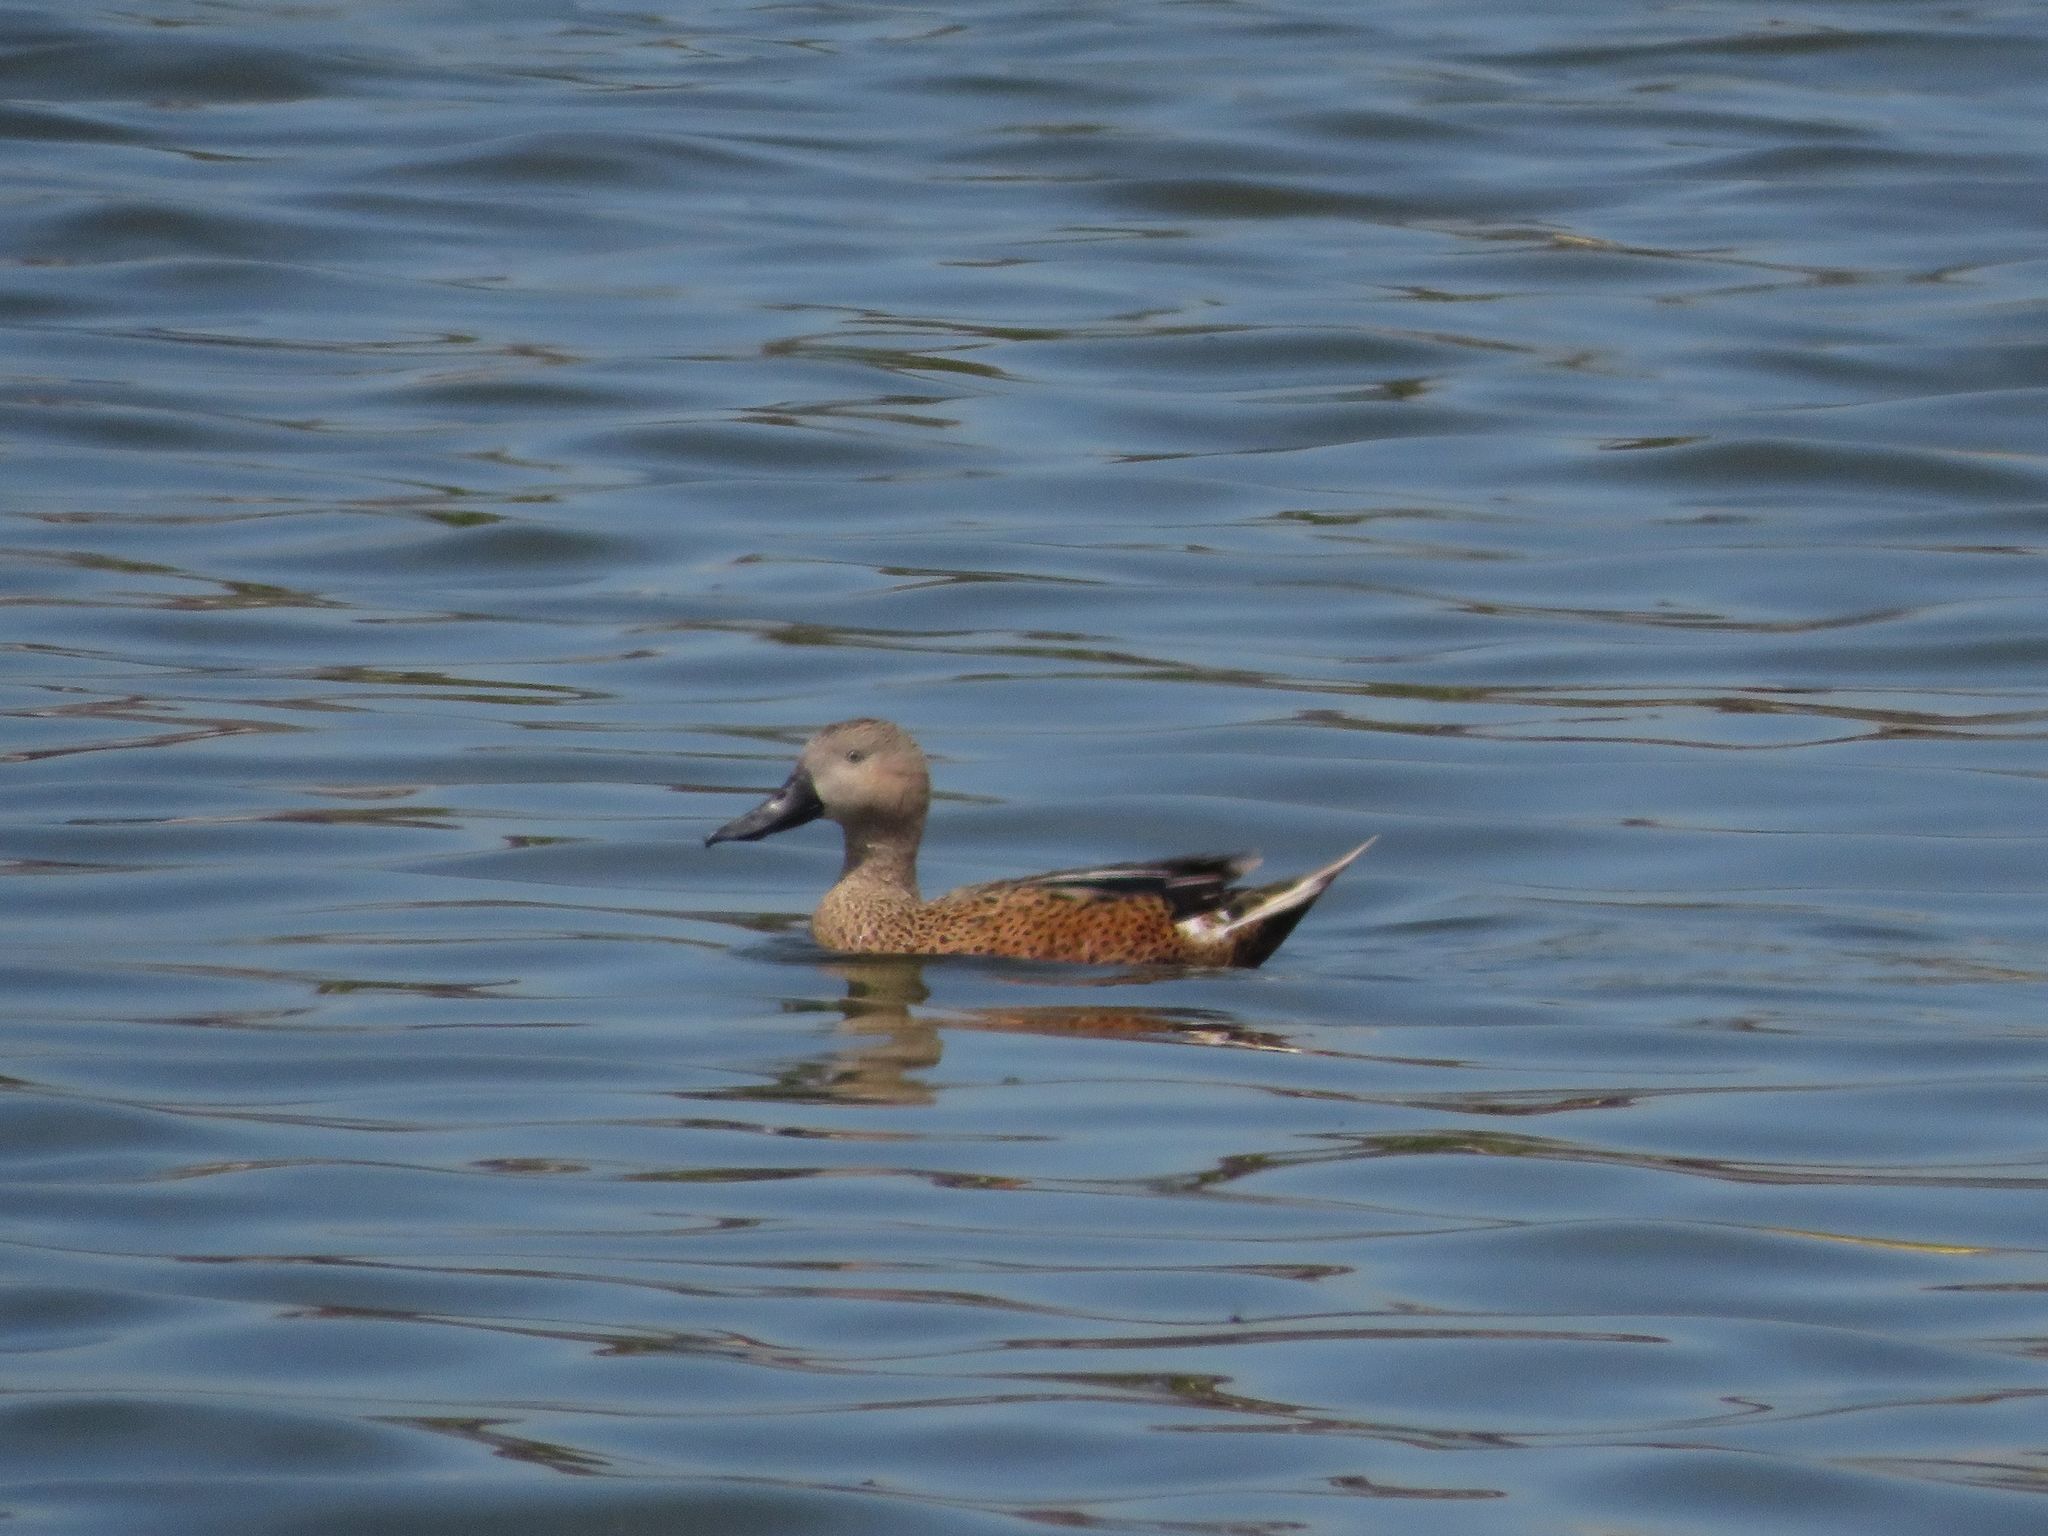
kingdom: Animalia
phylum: Chordata
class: Aves
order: Anseriformes
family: Anatidae
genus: Spatula
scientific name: Spatula platalea
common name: Red shoveler
